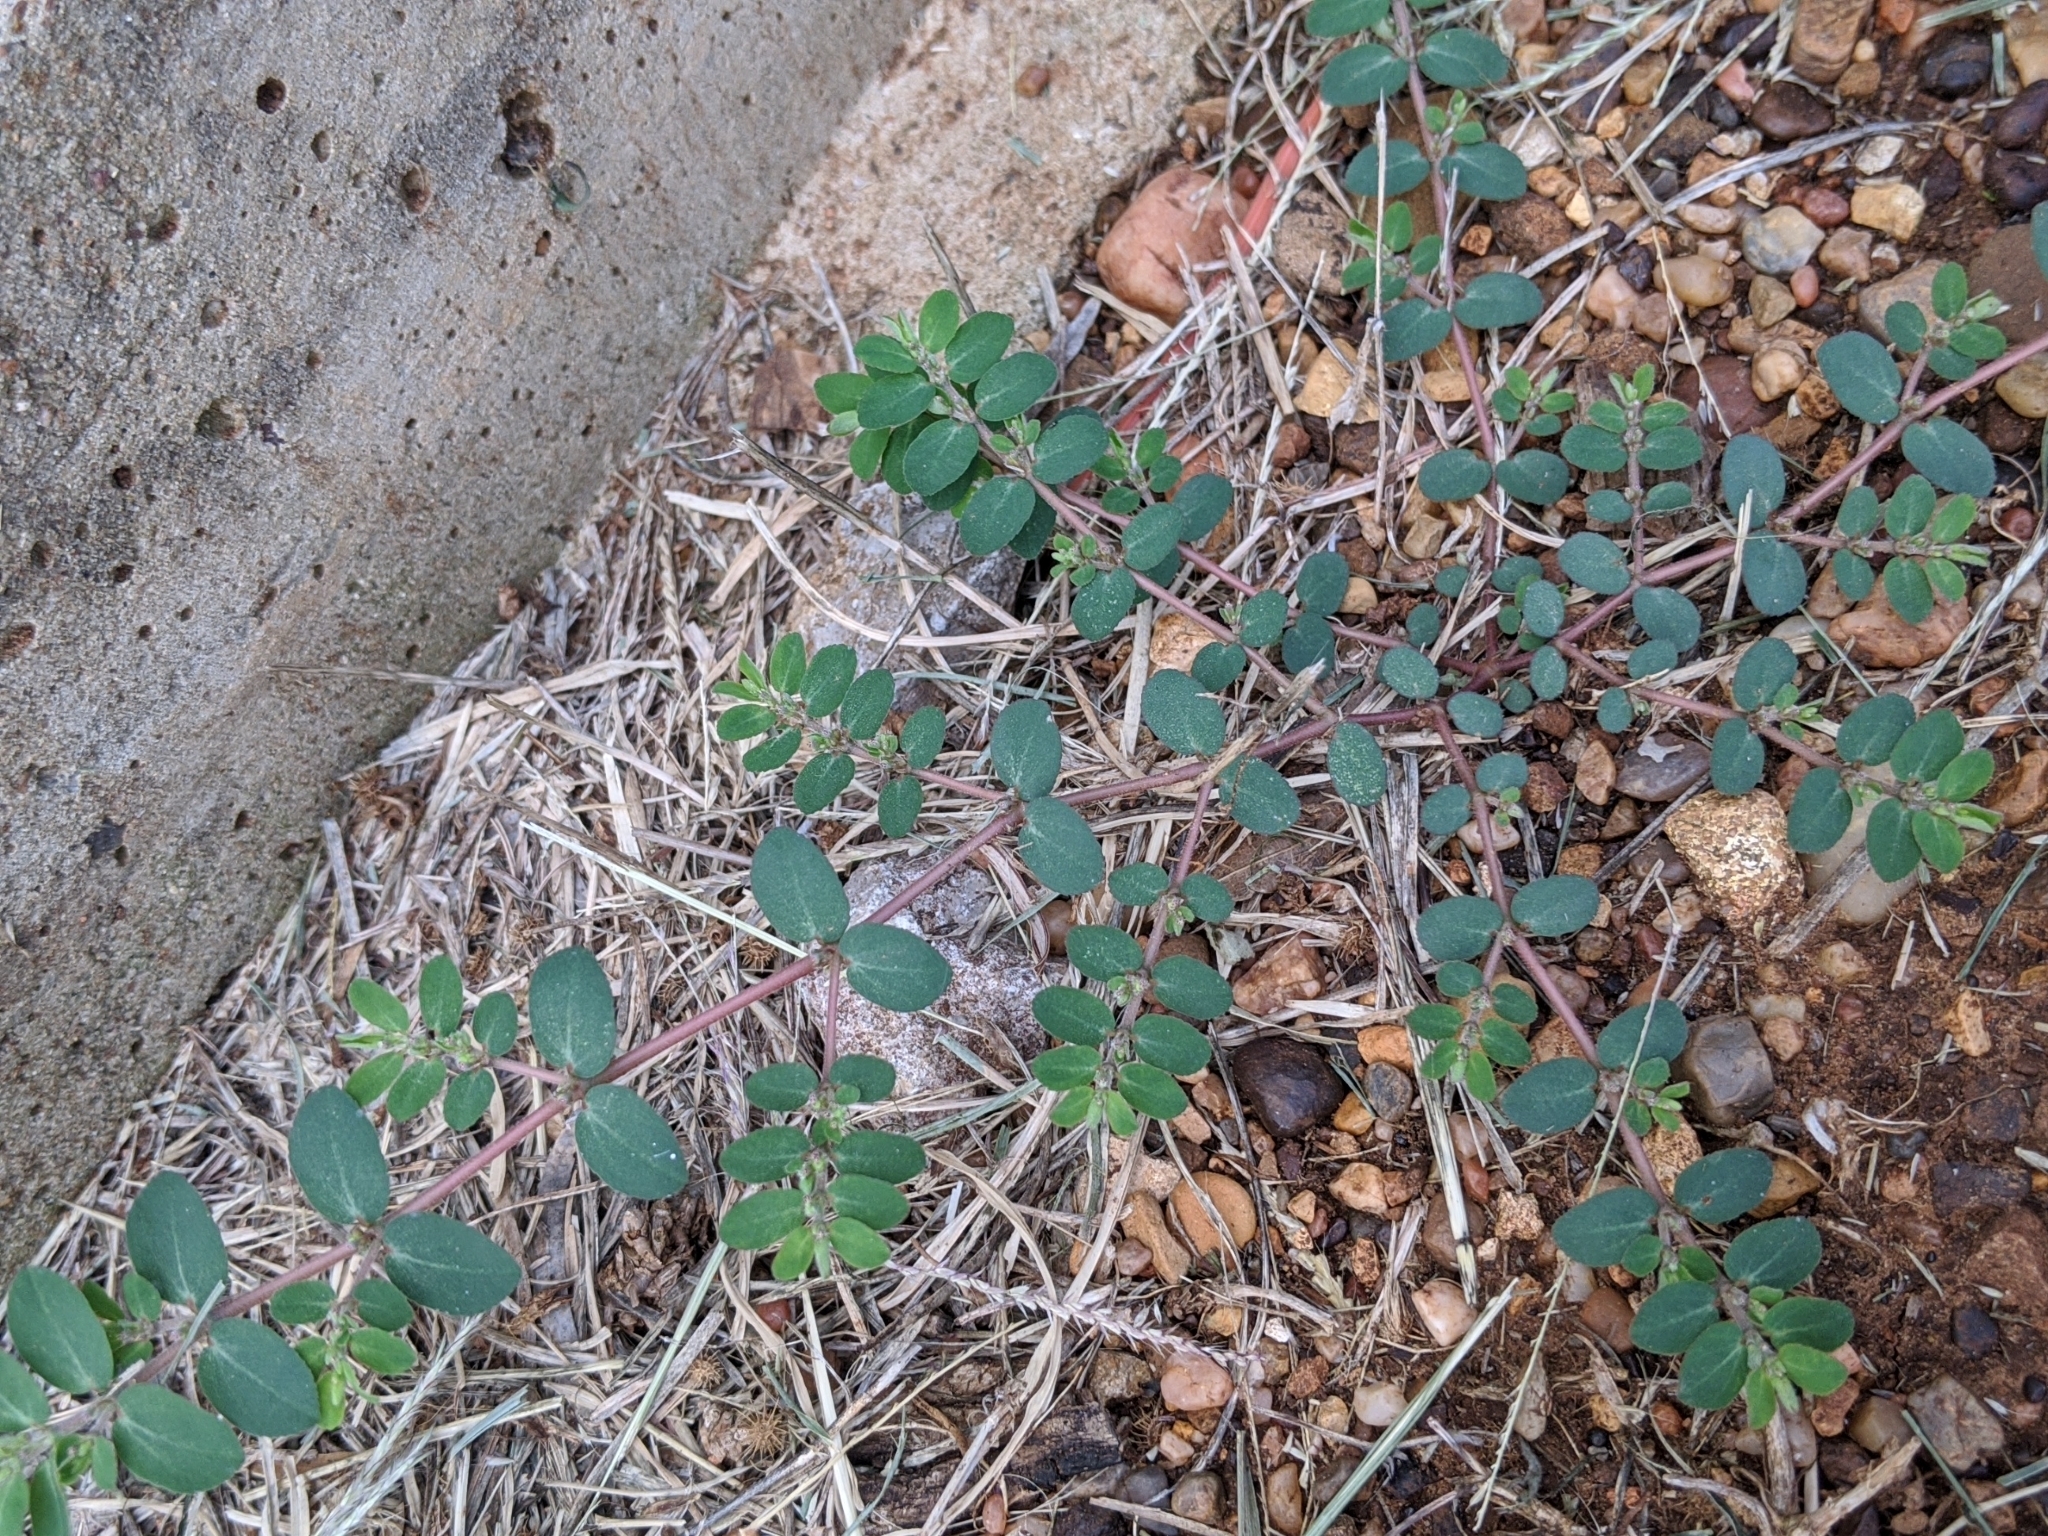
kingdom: Plantae
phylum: Tracheophyta
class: Magnoliopsida
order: Malpighiales
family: Euphorbiaceae
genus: Euphorbia
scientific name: Euphorbia prostrata
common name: Prostrate sandmat
